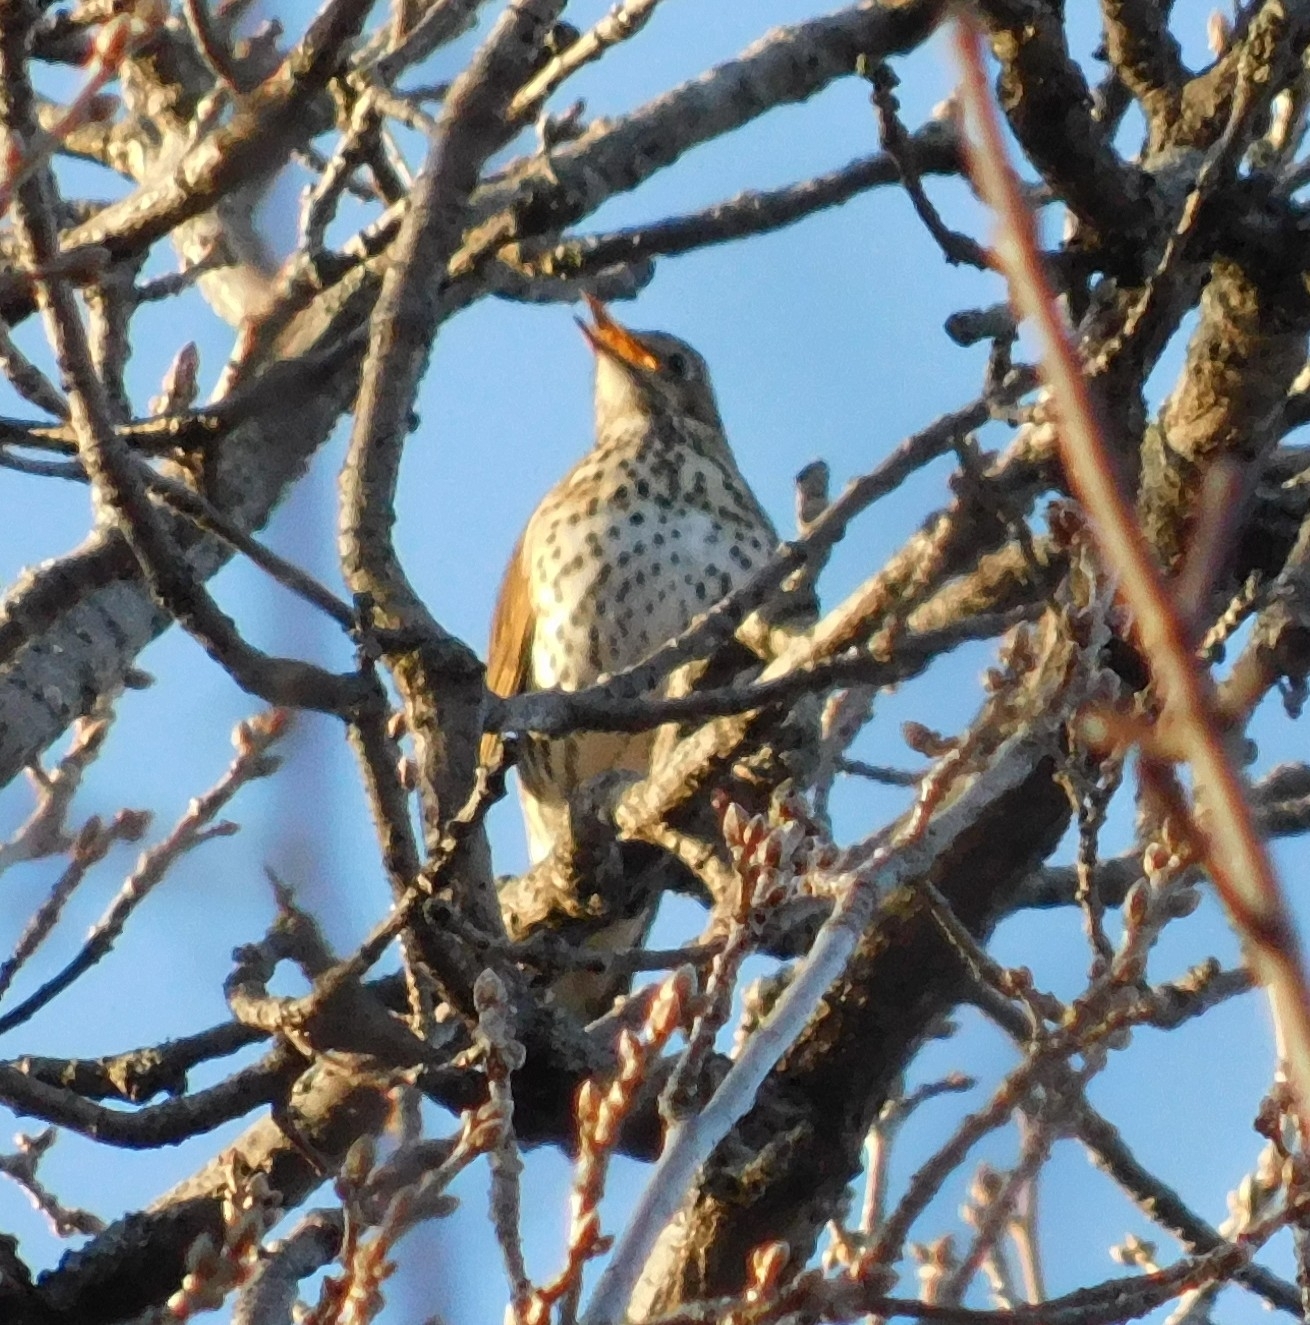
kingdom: Animalia
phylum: Chordata
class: Aves
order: Passeriformes
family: Turdidae
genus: Turdus
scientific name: Turdus philomelos
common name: Song thrush
